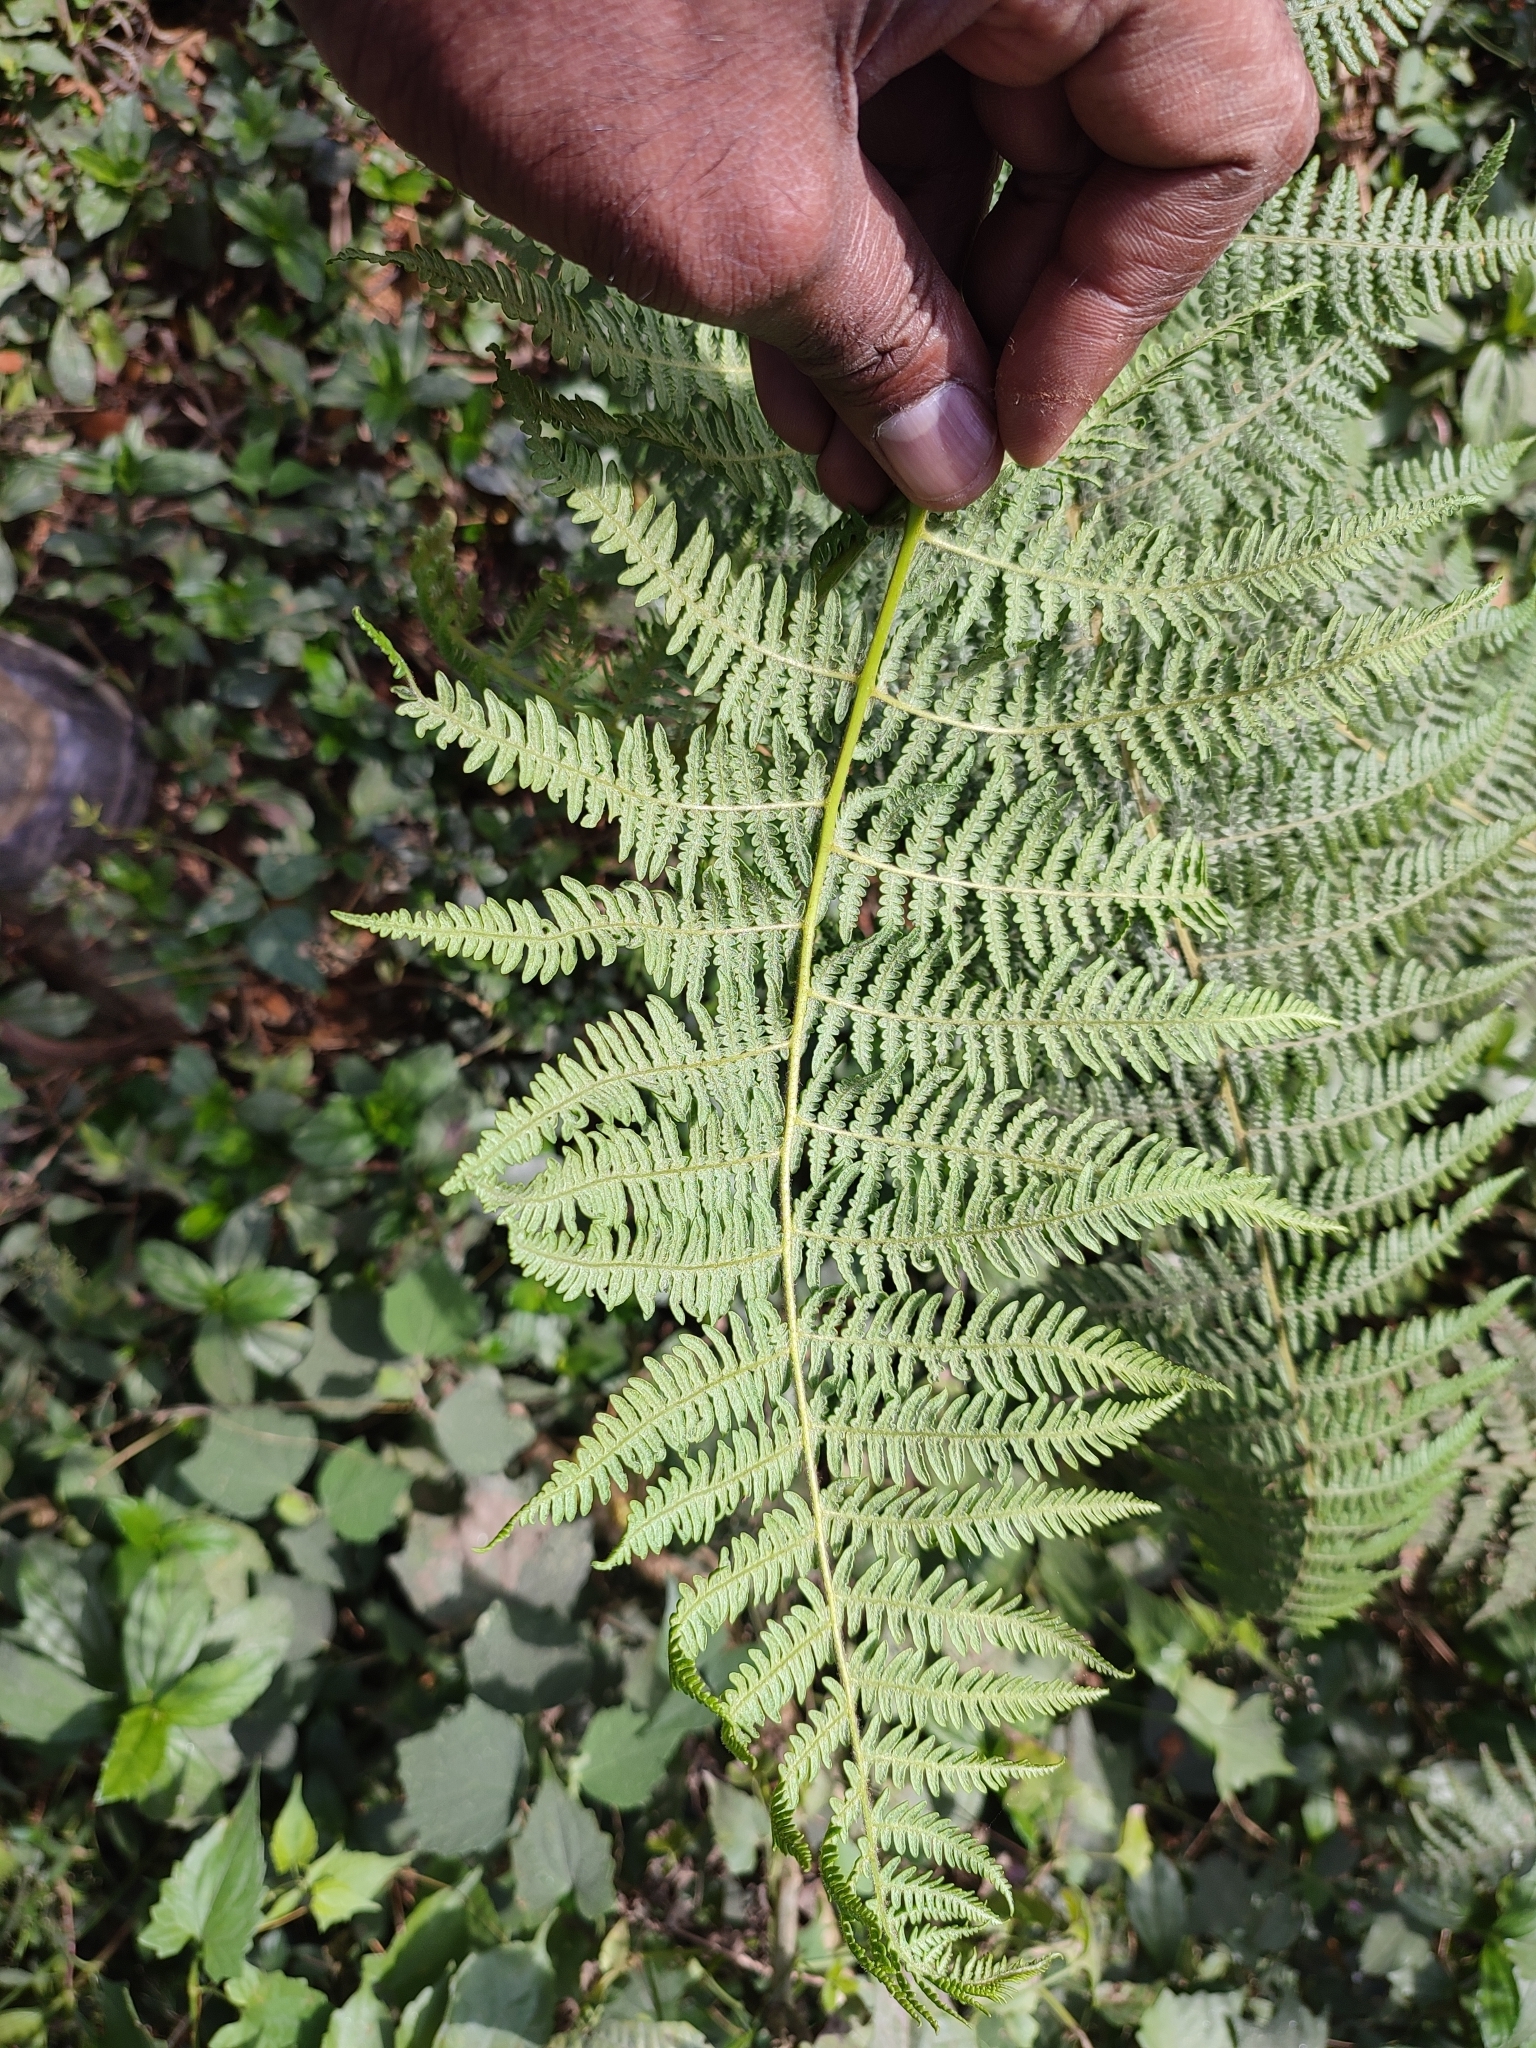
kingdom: Plantae
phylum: Tracheophyta
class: Polypodiopsida
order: Polypodiales
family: Dennstaedtiaceae
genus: Pteridium
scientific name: Pteridium aquilinum
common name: Bracken
